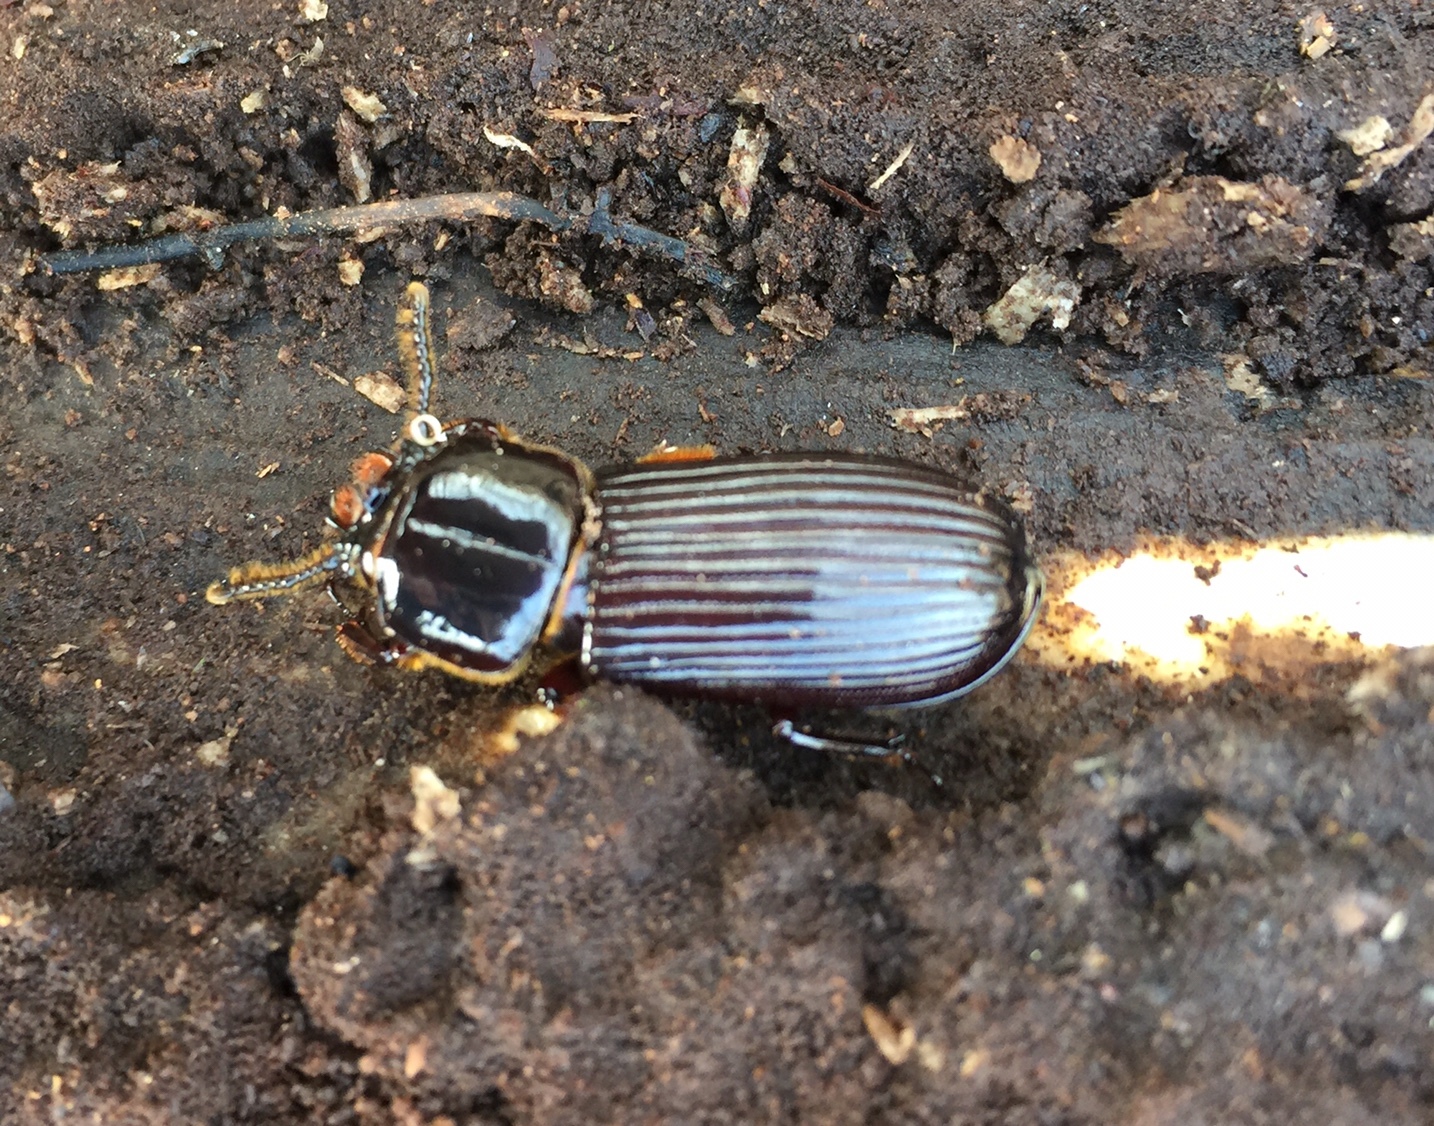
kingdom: Animalia
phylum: Arthropoda
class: Insecta
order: Coleoptera
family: Passalidae
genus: Odontotaenius
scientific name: Odontotaenius disjunctus
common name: Patent leather beetle
